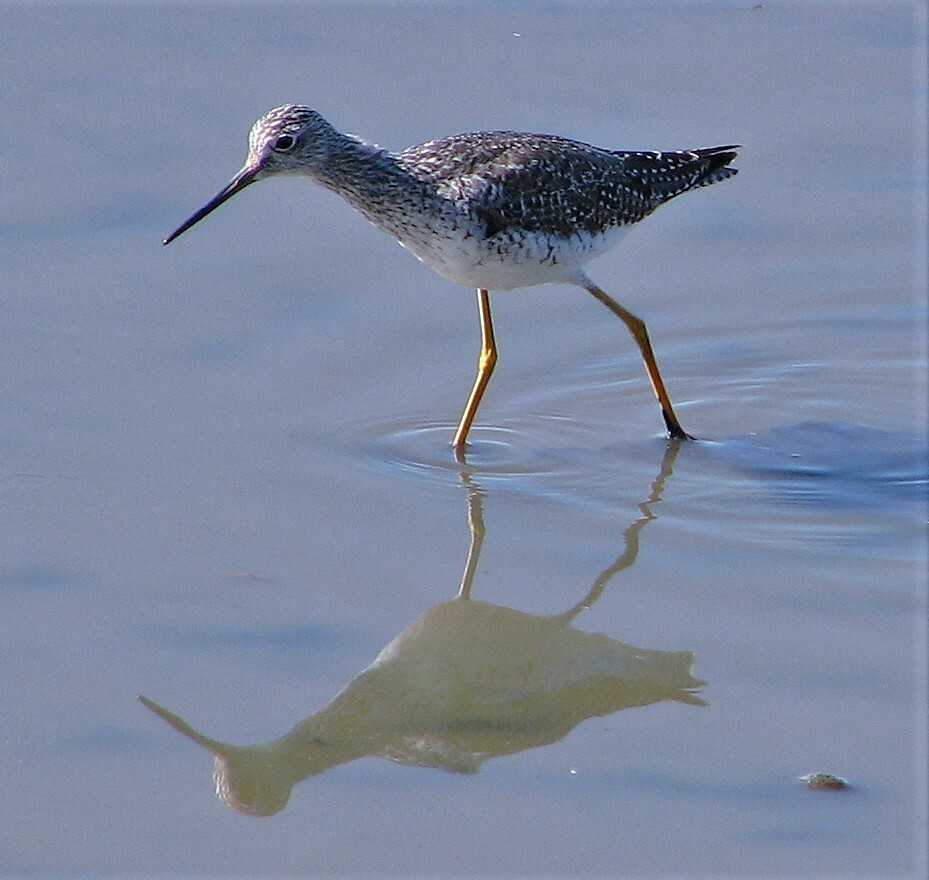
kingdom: Animalia
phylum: Chordata
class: Aves
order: Charadriiformes
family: Scolopacidae
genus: Tringa
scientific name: Tringa flavipes
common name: Lesser yellowlegs
